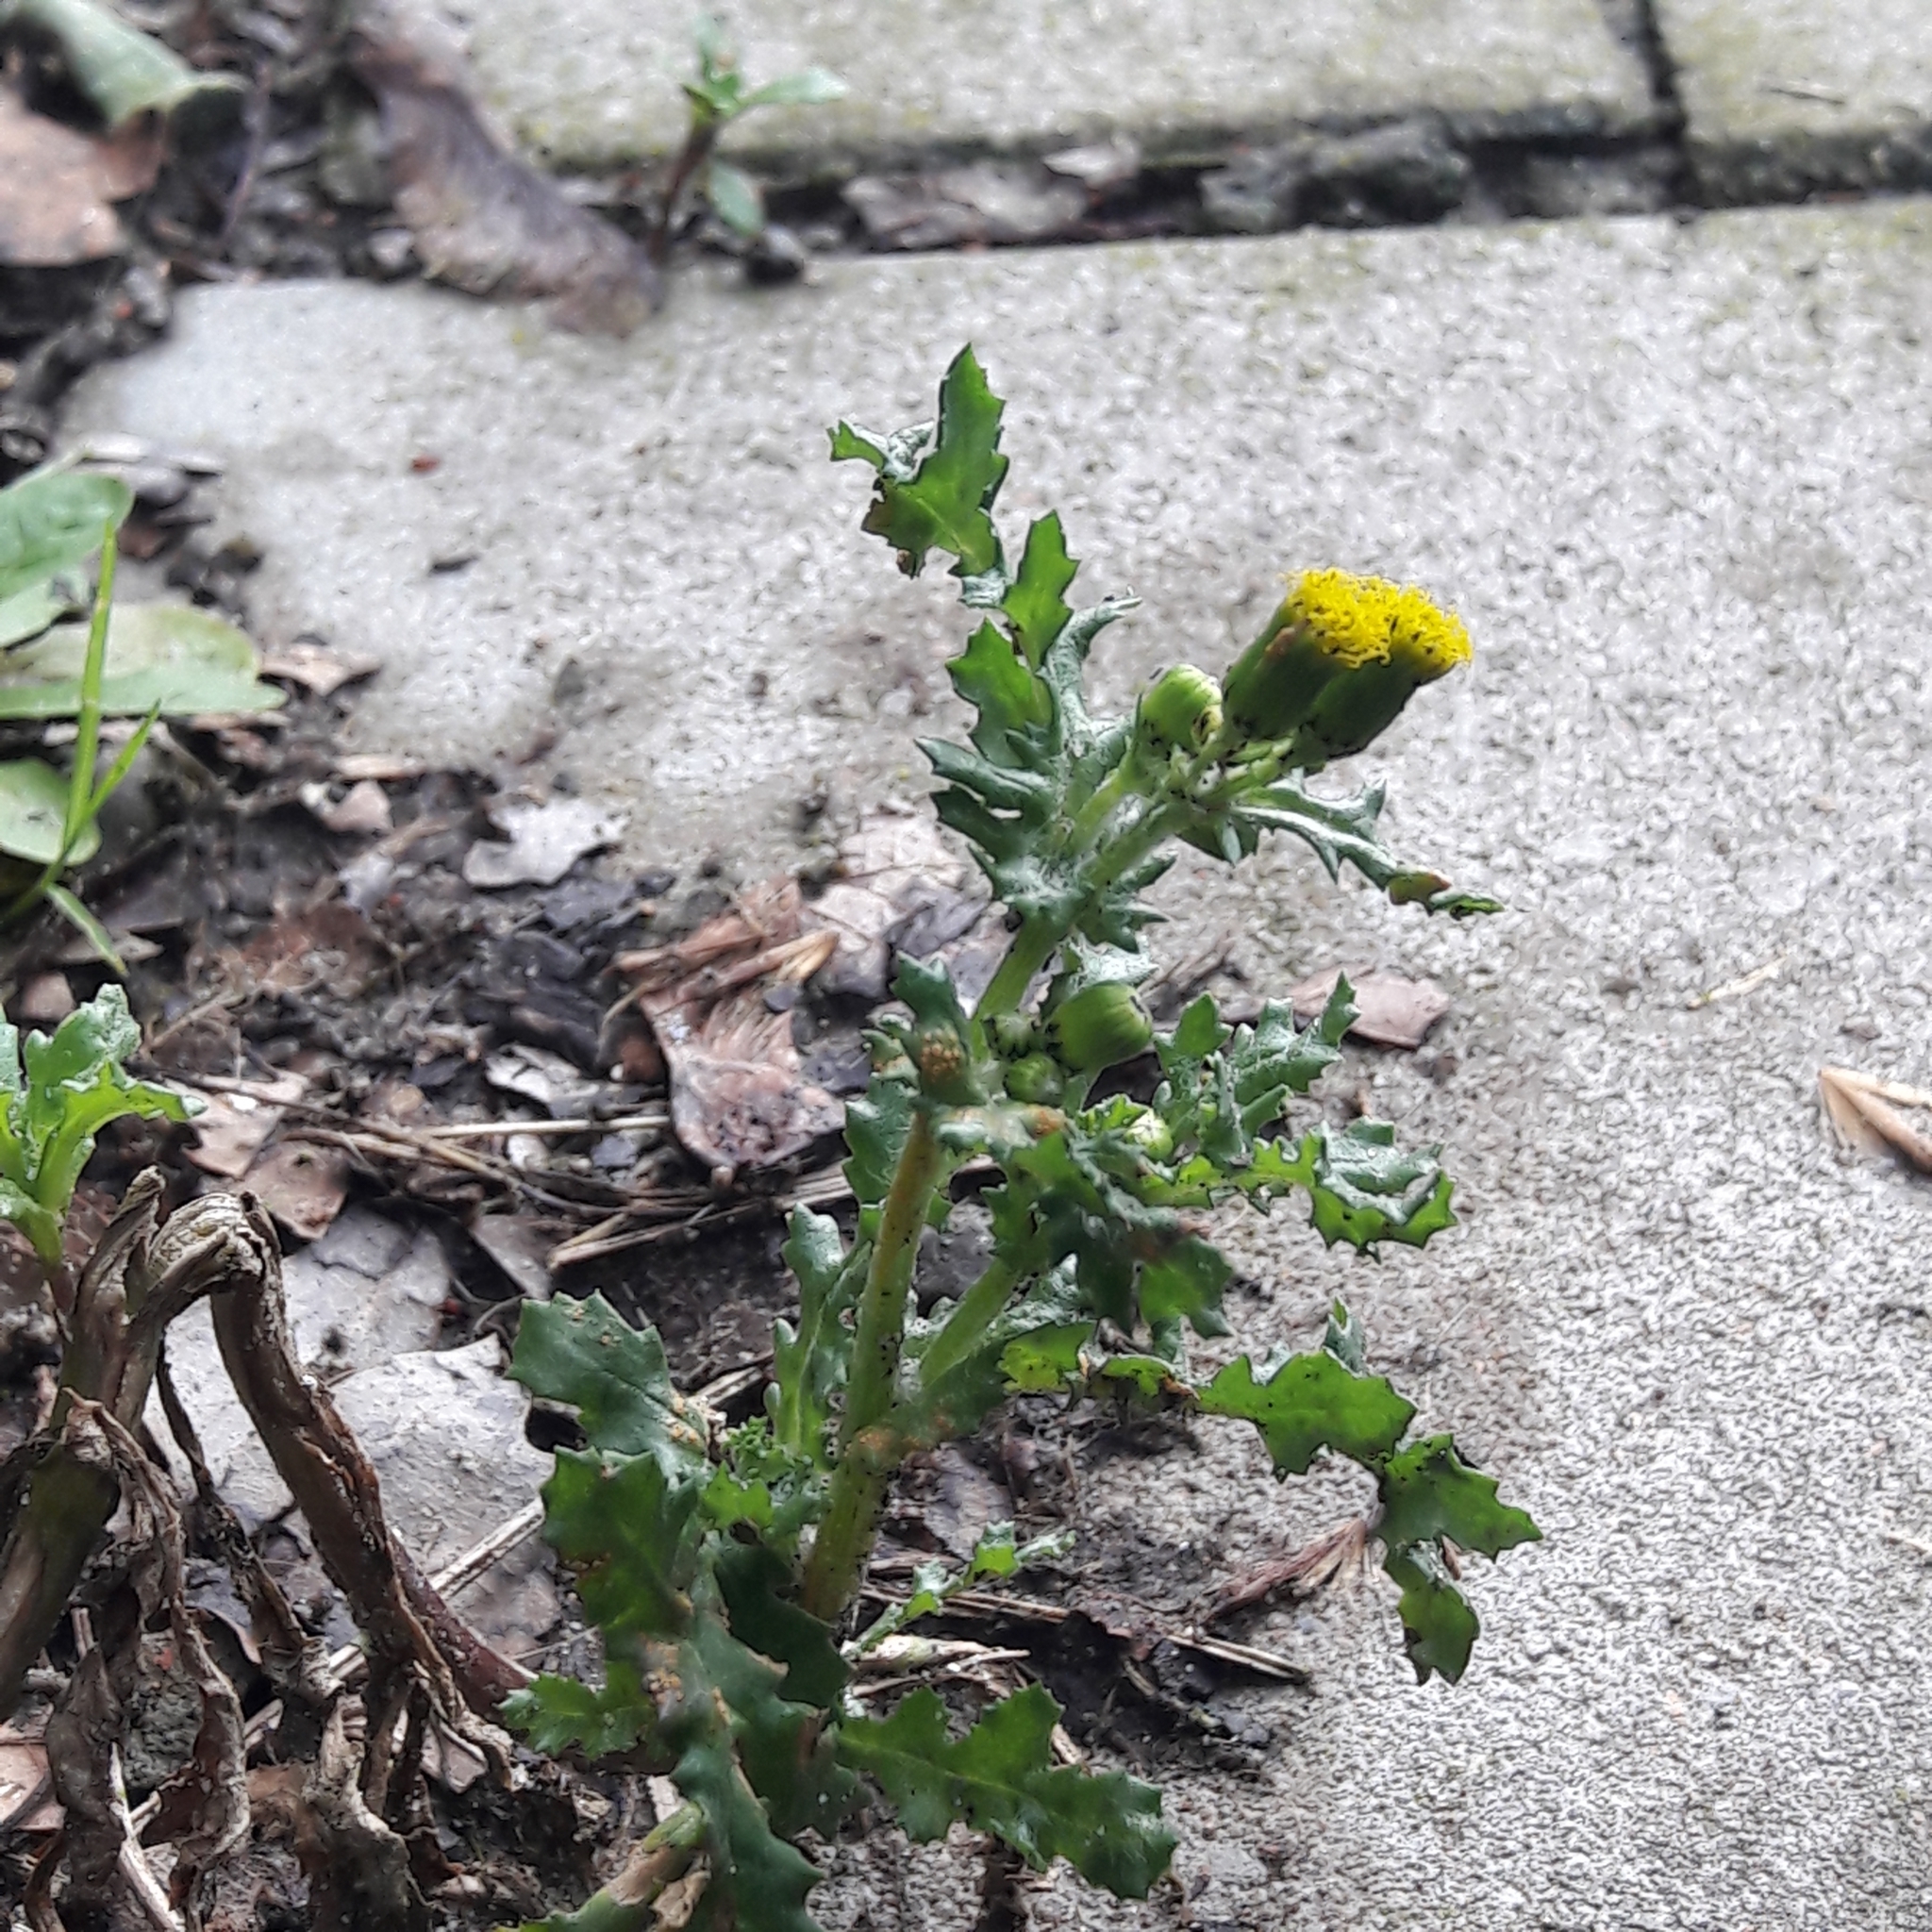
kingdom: Plantae
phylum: Tracheophyta
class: Magnoliopsida
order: Asterales
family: Asteraceae
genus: Senecio
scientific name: Senecio vulgaris
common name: Old-man-in-the-spring
